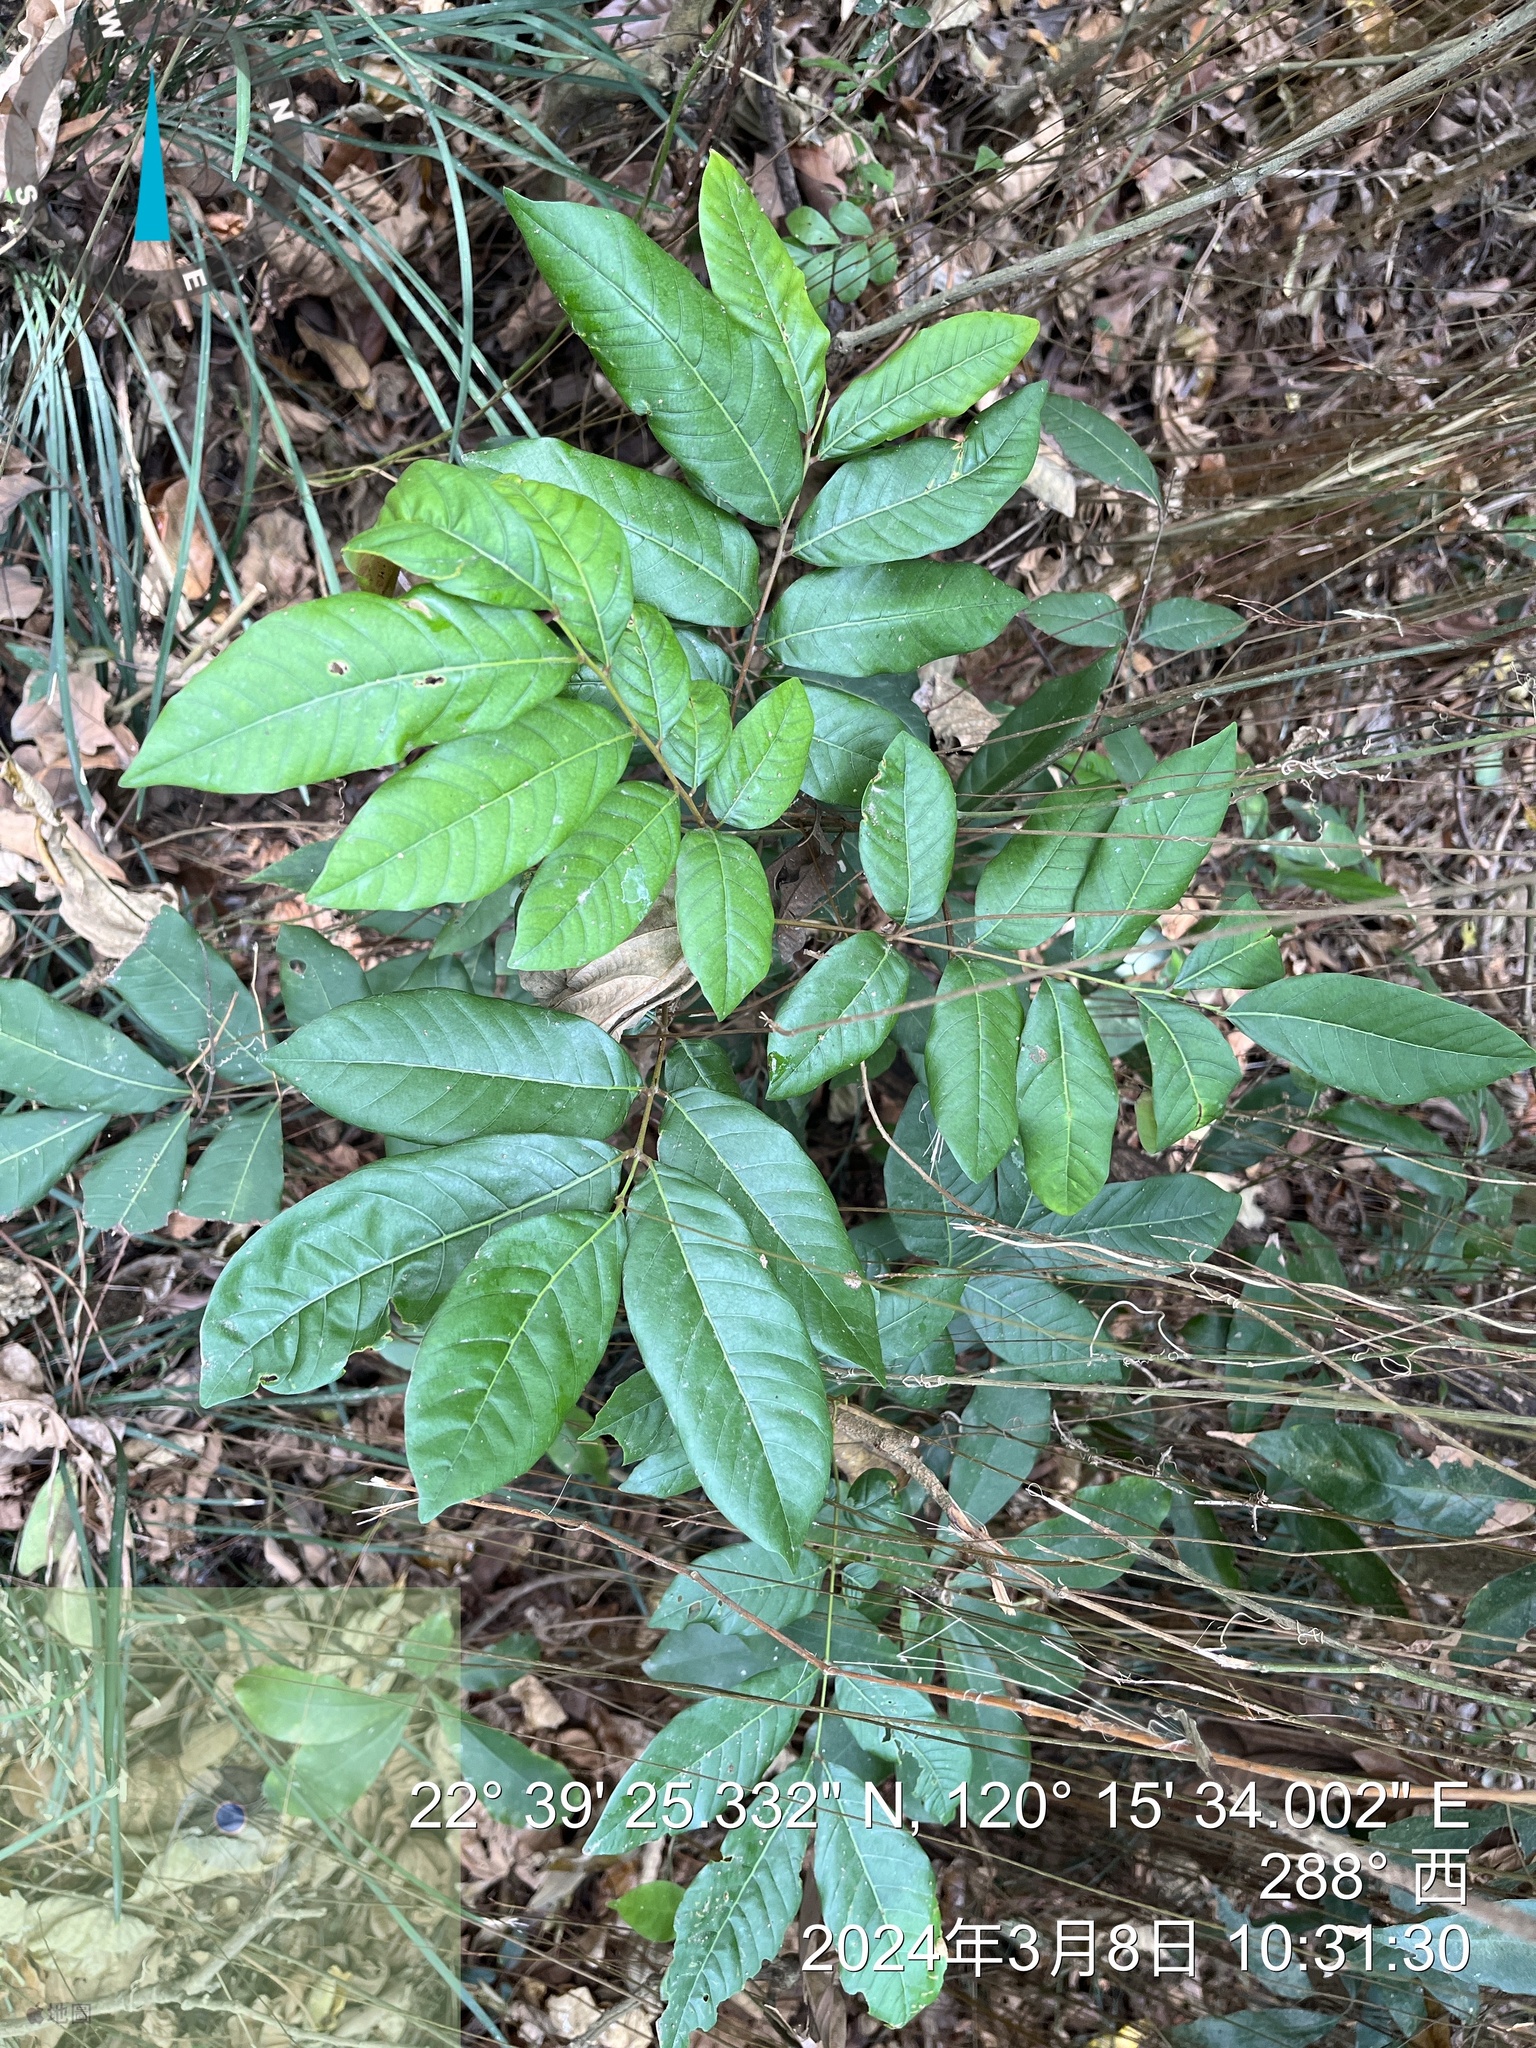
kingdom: Plantae
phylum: Tracheophyta
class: Magnoliopsida
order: Sapindales
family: Sapindaceae
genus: Dimocarpus
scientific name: Dimocarpus longan
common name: Longan
